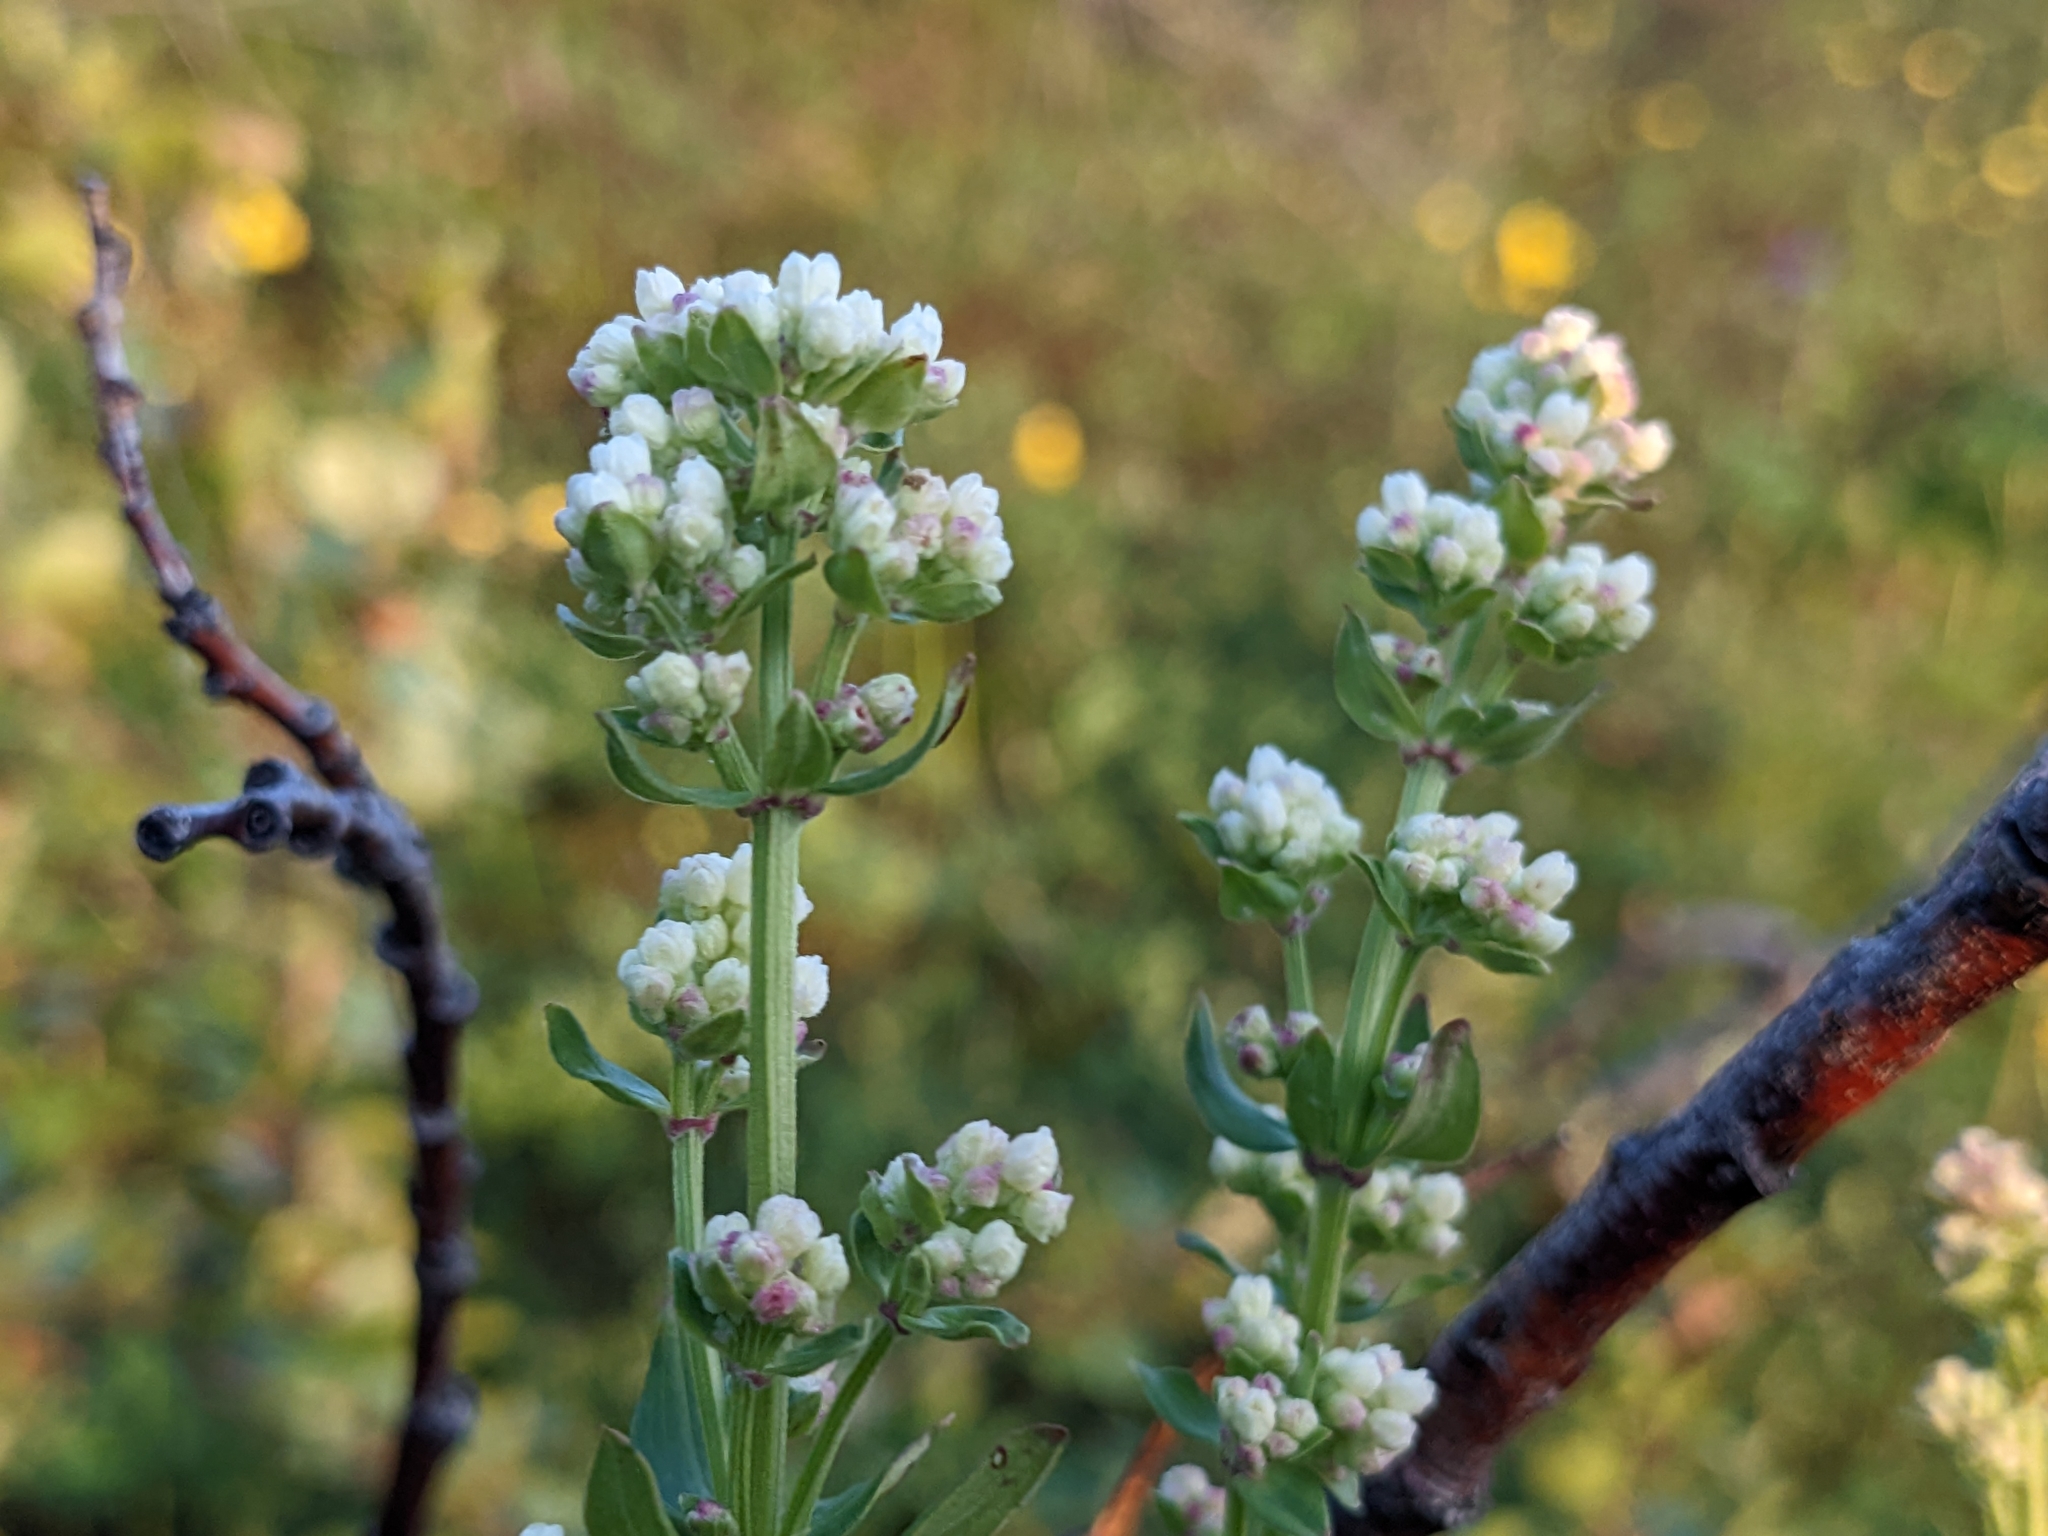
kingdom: Plantae
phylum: Tracheophyta
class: Magnoliopsida
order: Gentianales
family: Rubiaceae
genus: Galium
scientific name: Galium boreale
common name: Northern bedstraw
